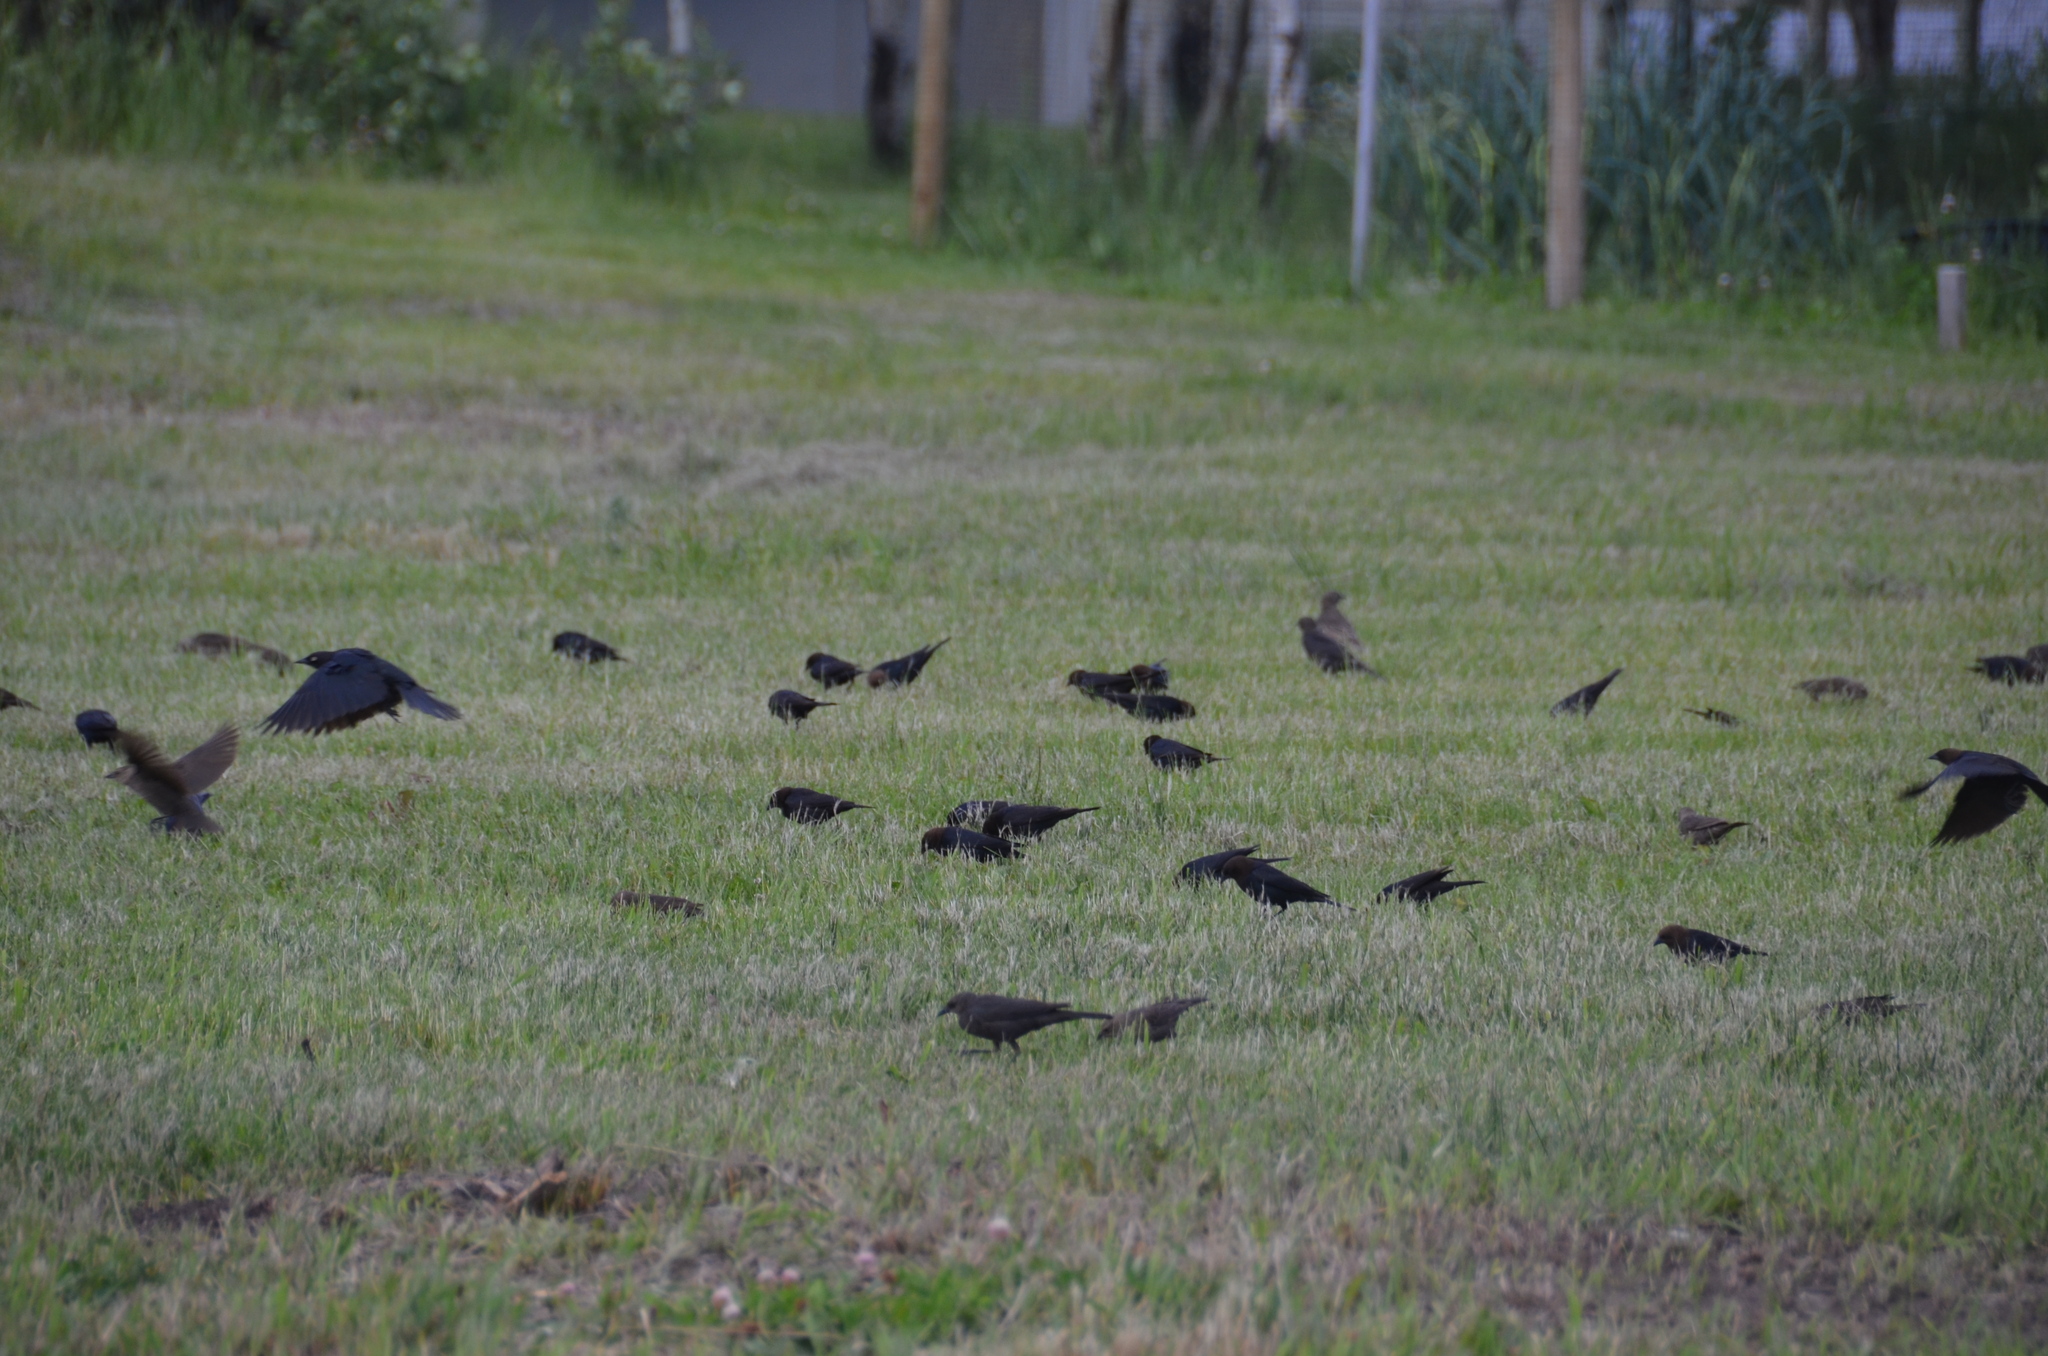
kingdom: Animalia
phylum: Chordata
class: Aves
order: Passeriformes
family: Icteridae
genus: Molothrus
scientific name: Molothrus ater
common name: Brown-headed cowbird
